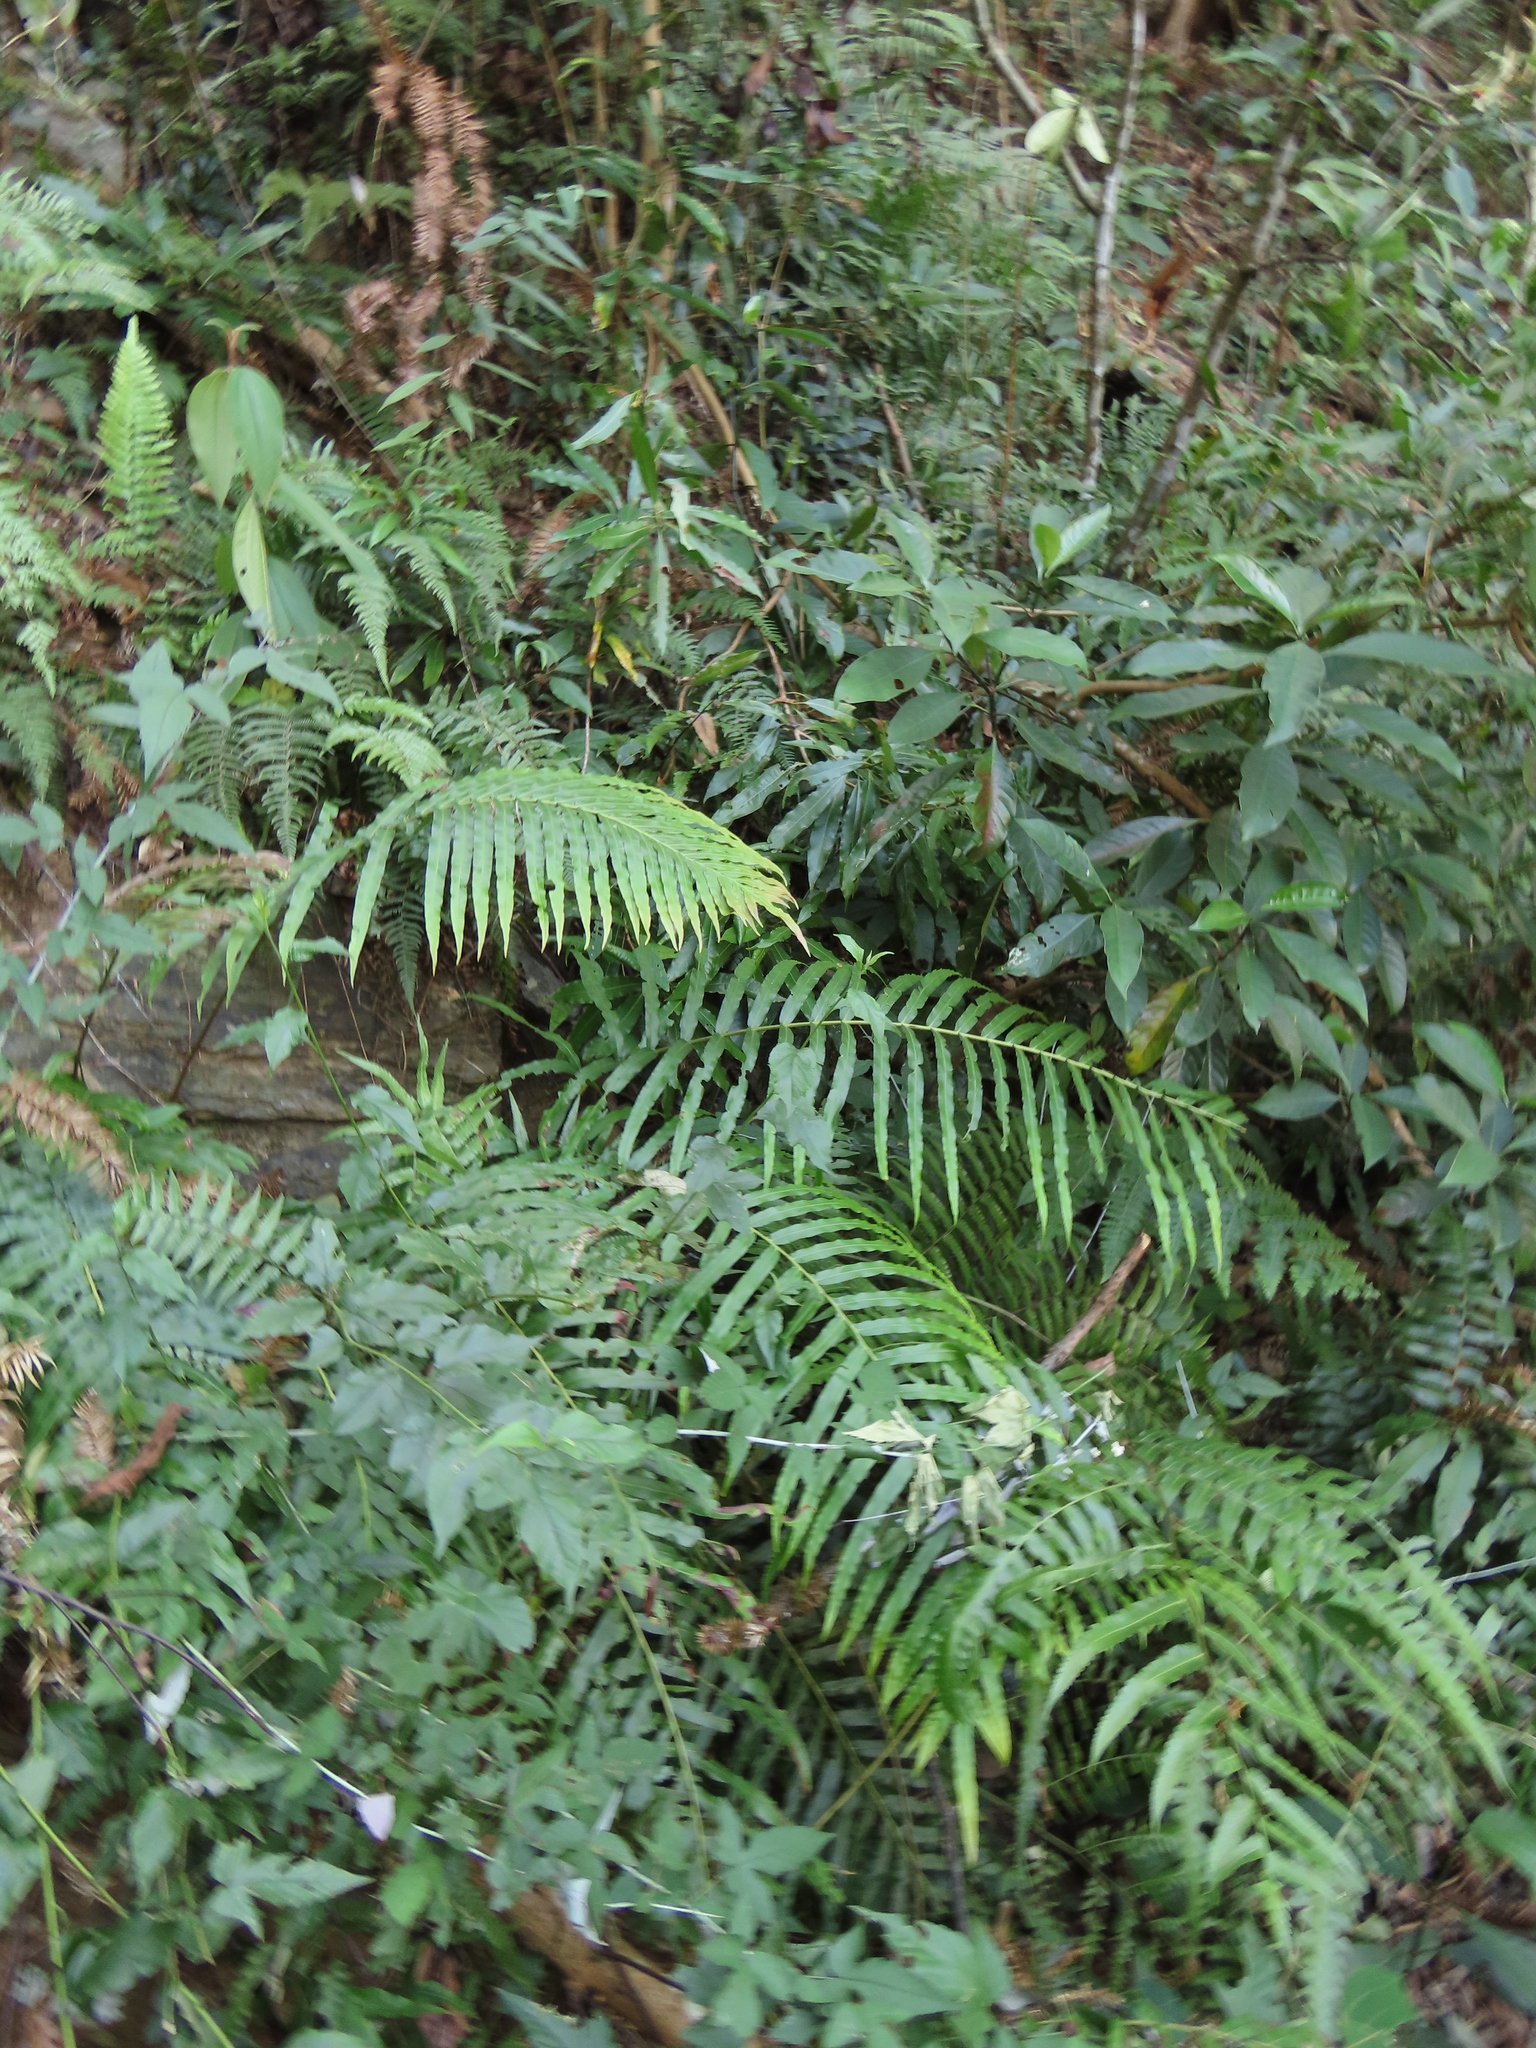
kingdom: Plantae
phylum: Tracheophyta
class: Polypodiopsida
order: Polypodiales
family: Blechnaceae
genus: Blechnopsis
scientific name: Blechnopsis orientalis
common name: Oriental blechnum
